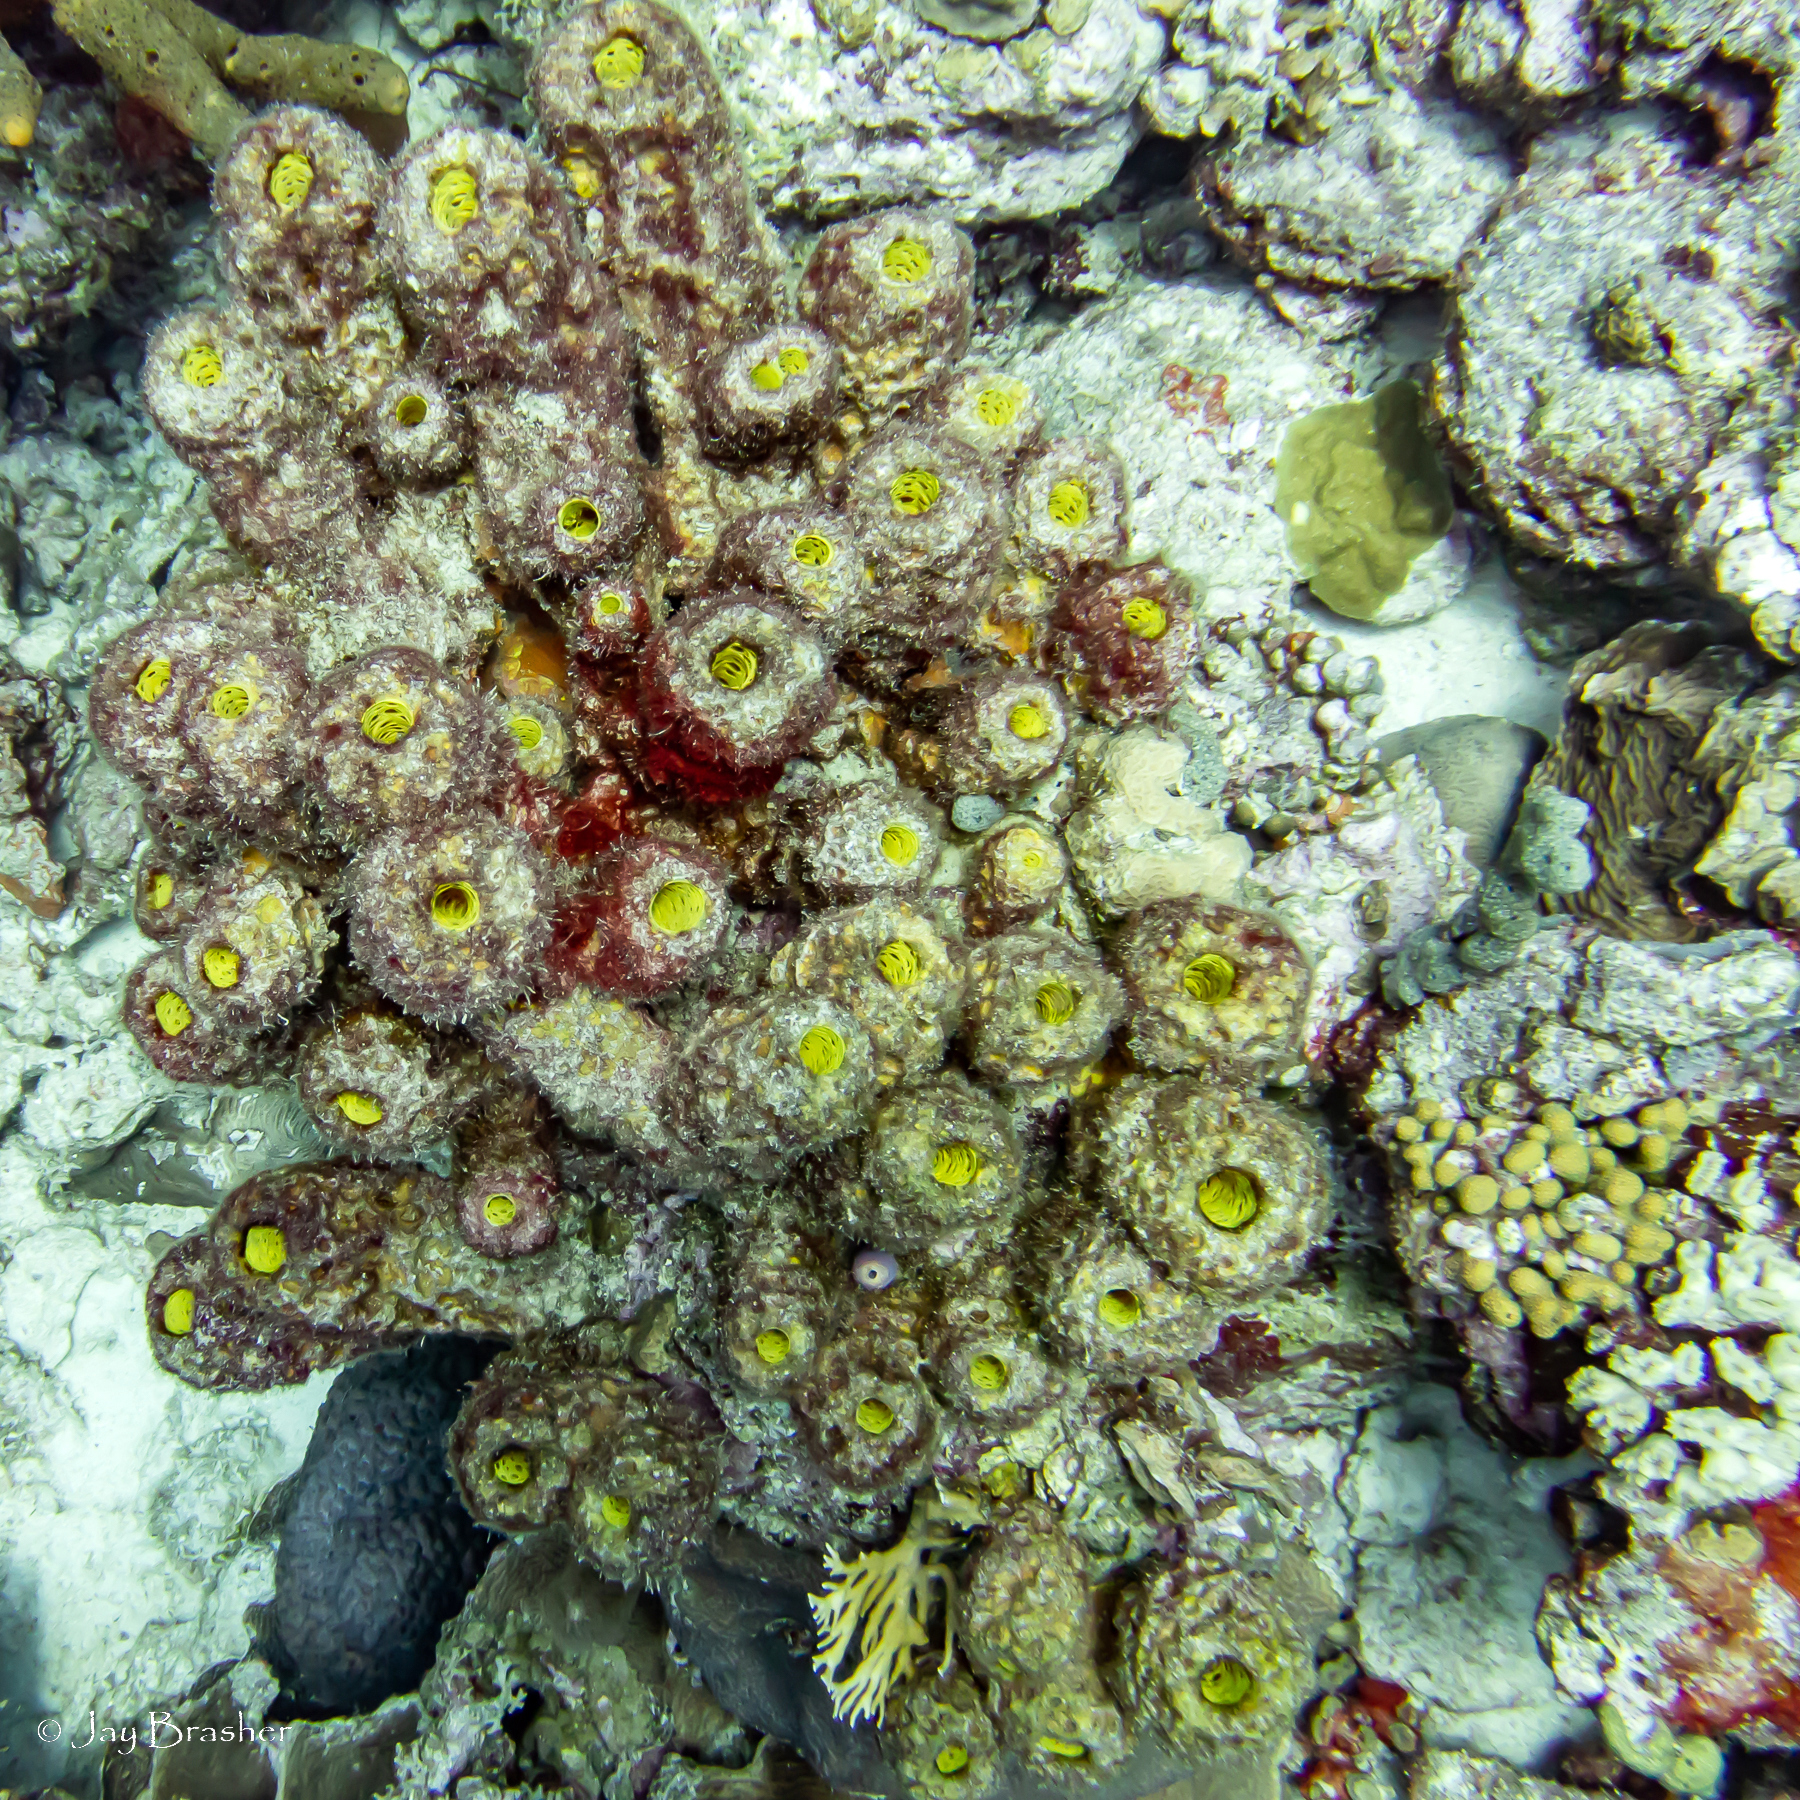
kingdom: Animalia
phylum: Porifera
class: Demospongiae
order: Verongiida
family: Aplysinidae
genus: Verongula
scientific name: Verongula rigida
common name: Pitted sponge
